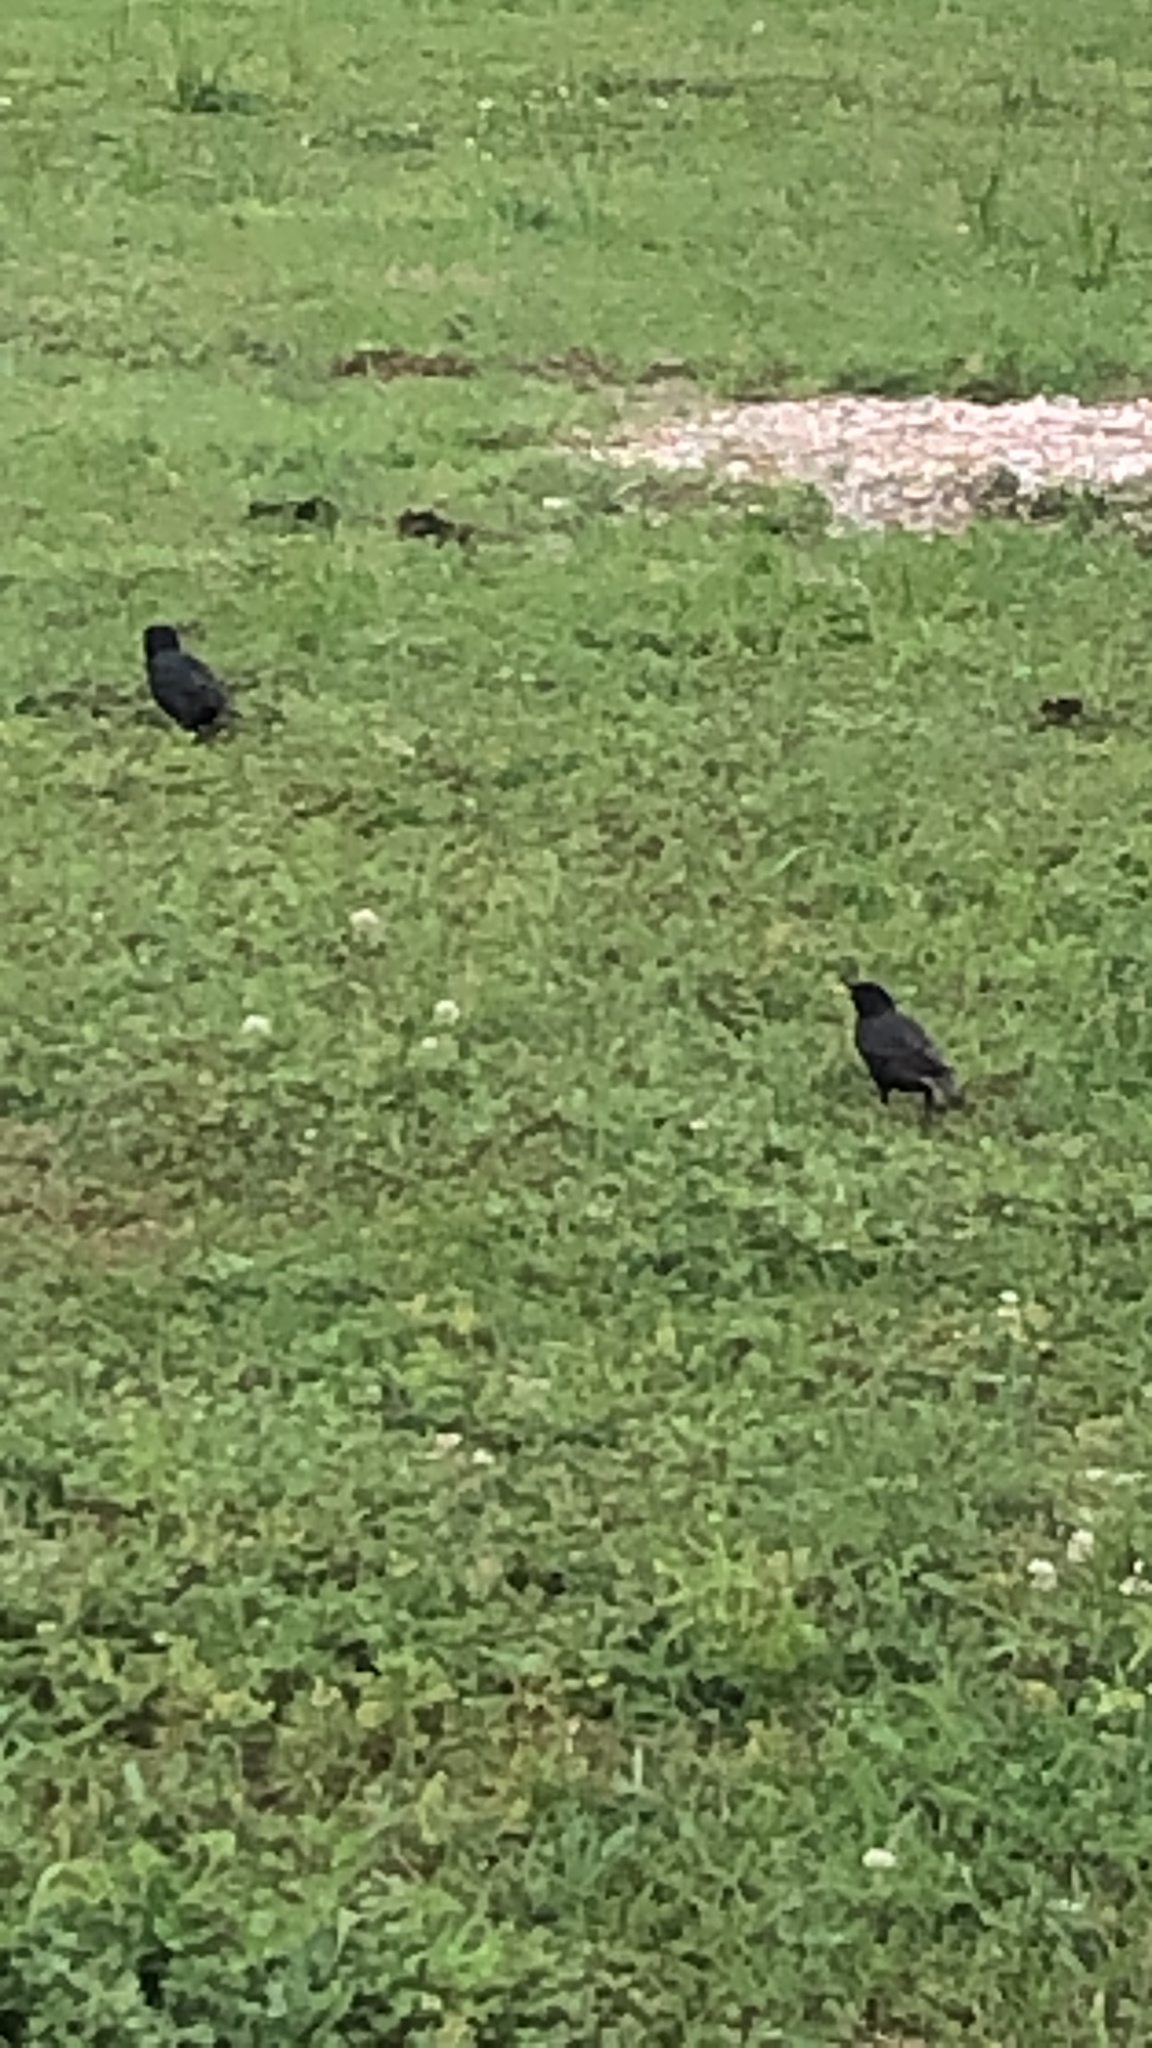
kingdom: Animalia
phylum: Chordata
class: Aves
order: Passeriformes
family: Sturnidae
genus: Sturnus
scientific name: Sturnus vulgaris
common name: Common starling
